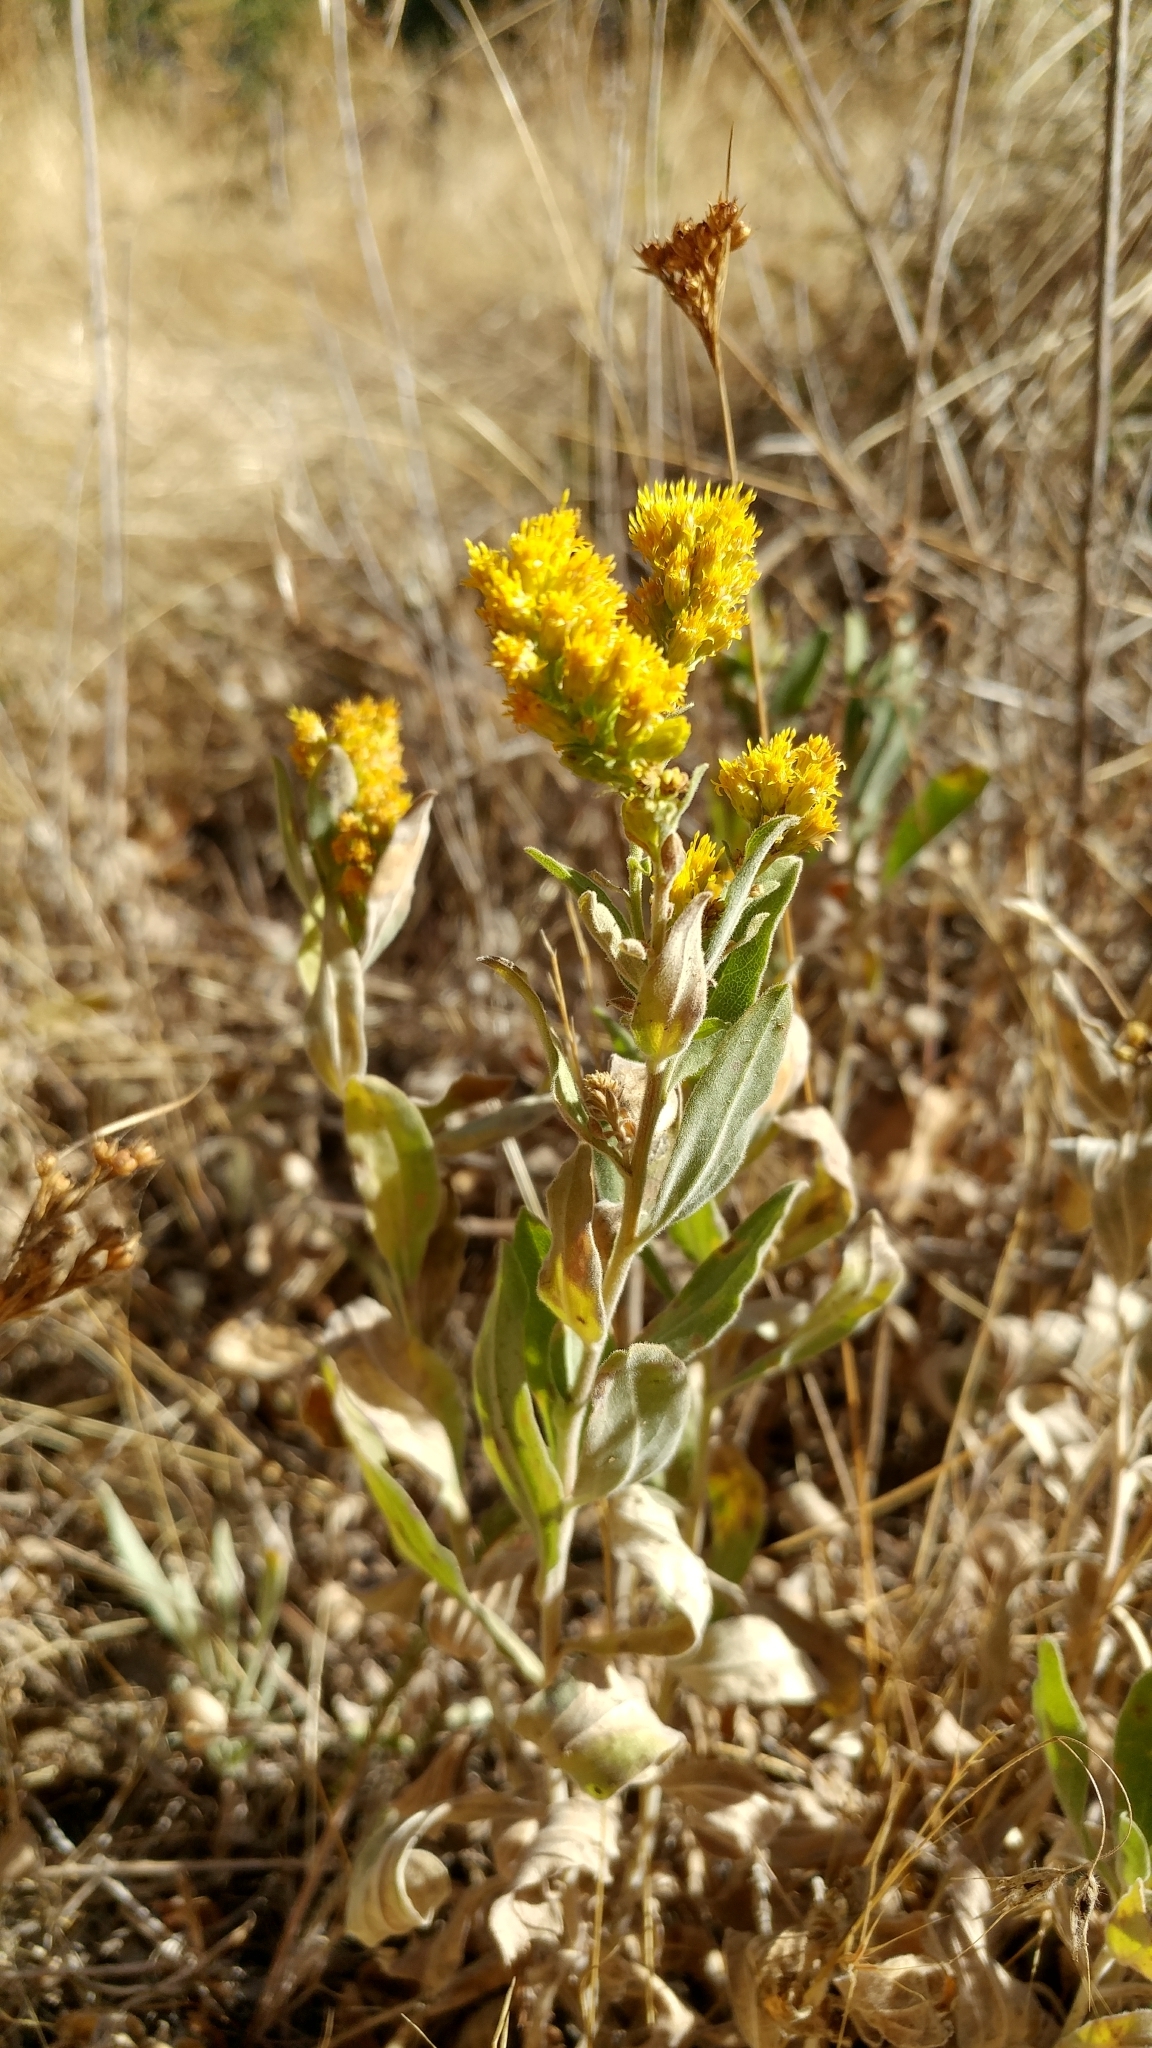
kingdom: Plantae
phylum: Tracheophyta
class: Magnoliopsida
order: Asterales
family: Asteraceae
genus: Solidago
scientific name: Solidago californica
